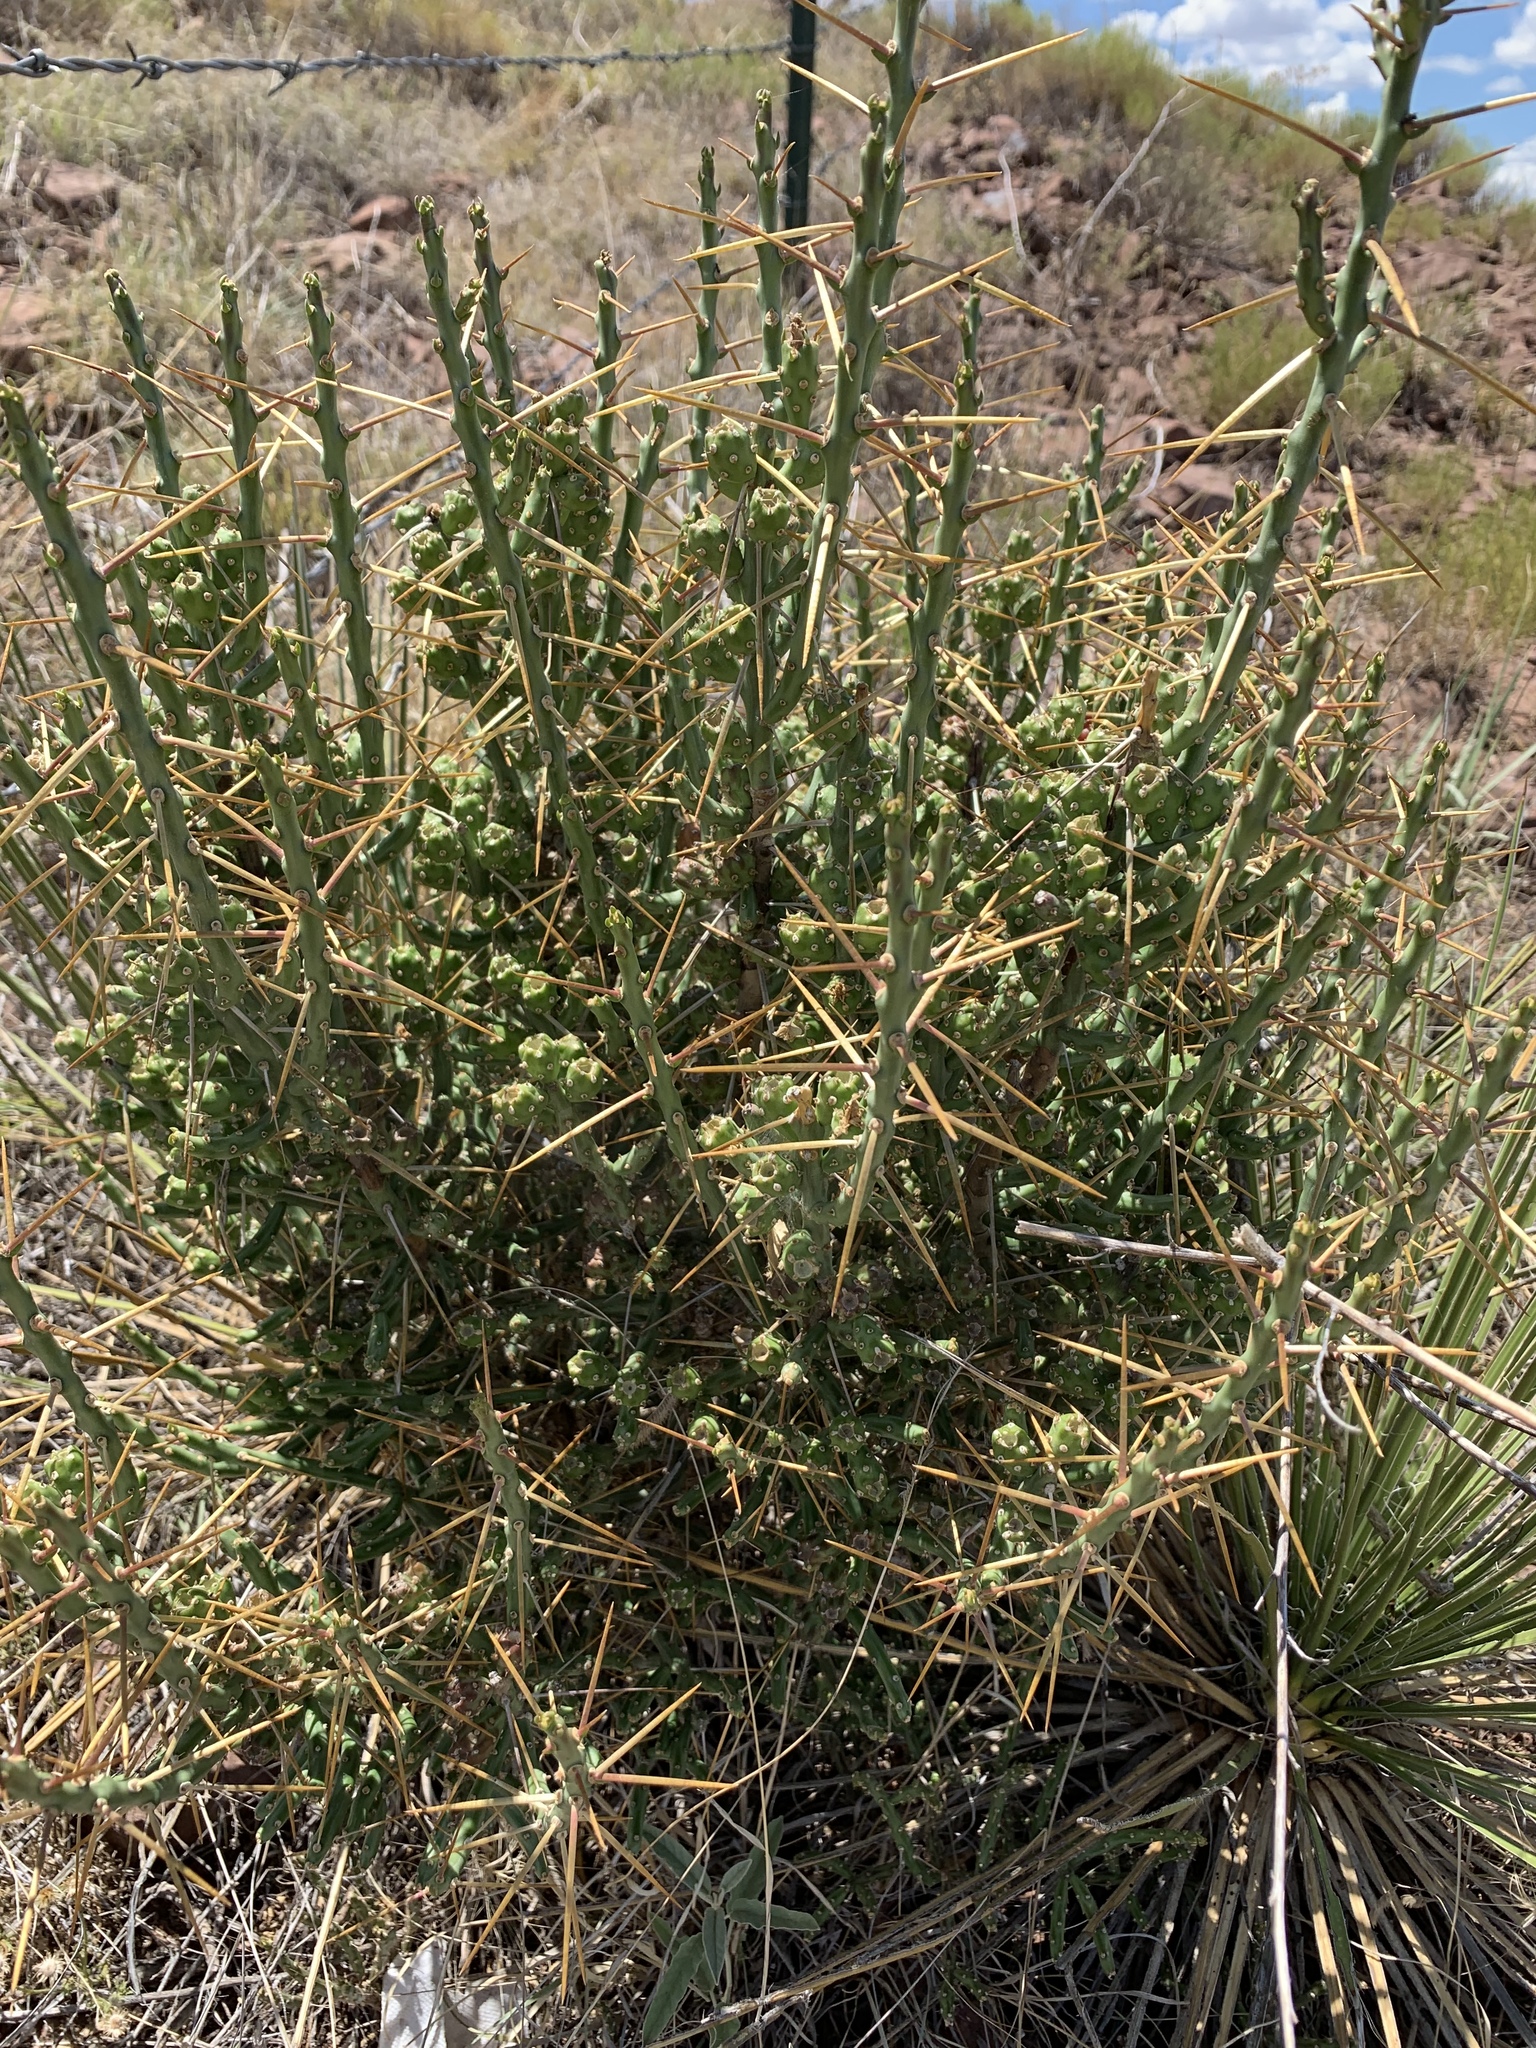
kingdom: Plantae
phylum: Tracheophyta
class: Magnoliopsida
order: Caryophyllales
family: Cactaceae
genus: Cylindropuntia
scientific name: Cylindropuntia leptocaulis
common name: Christmas cactus
